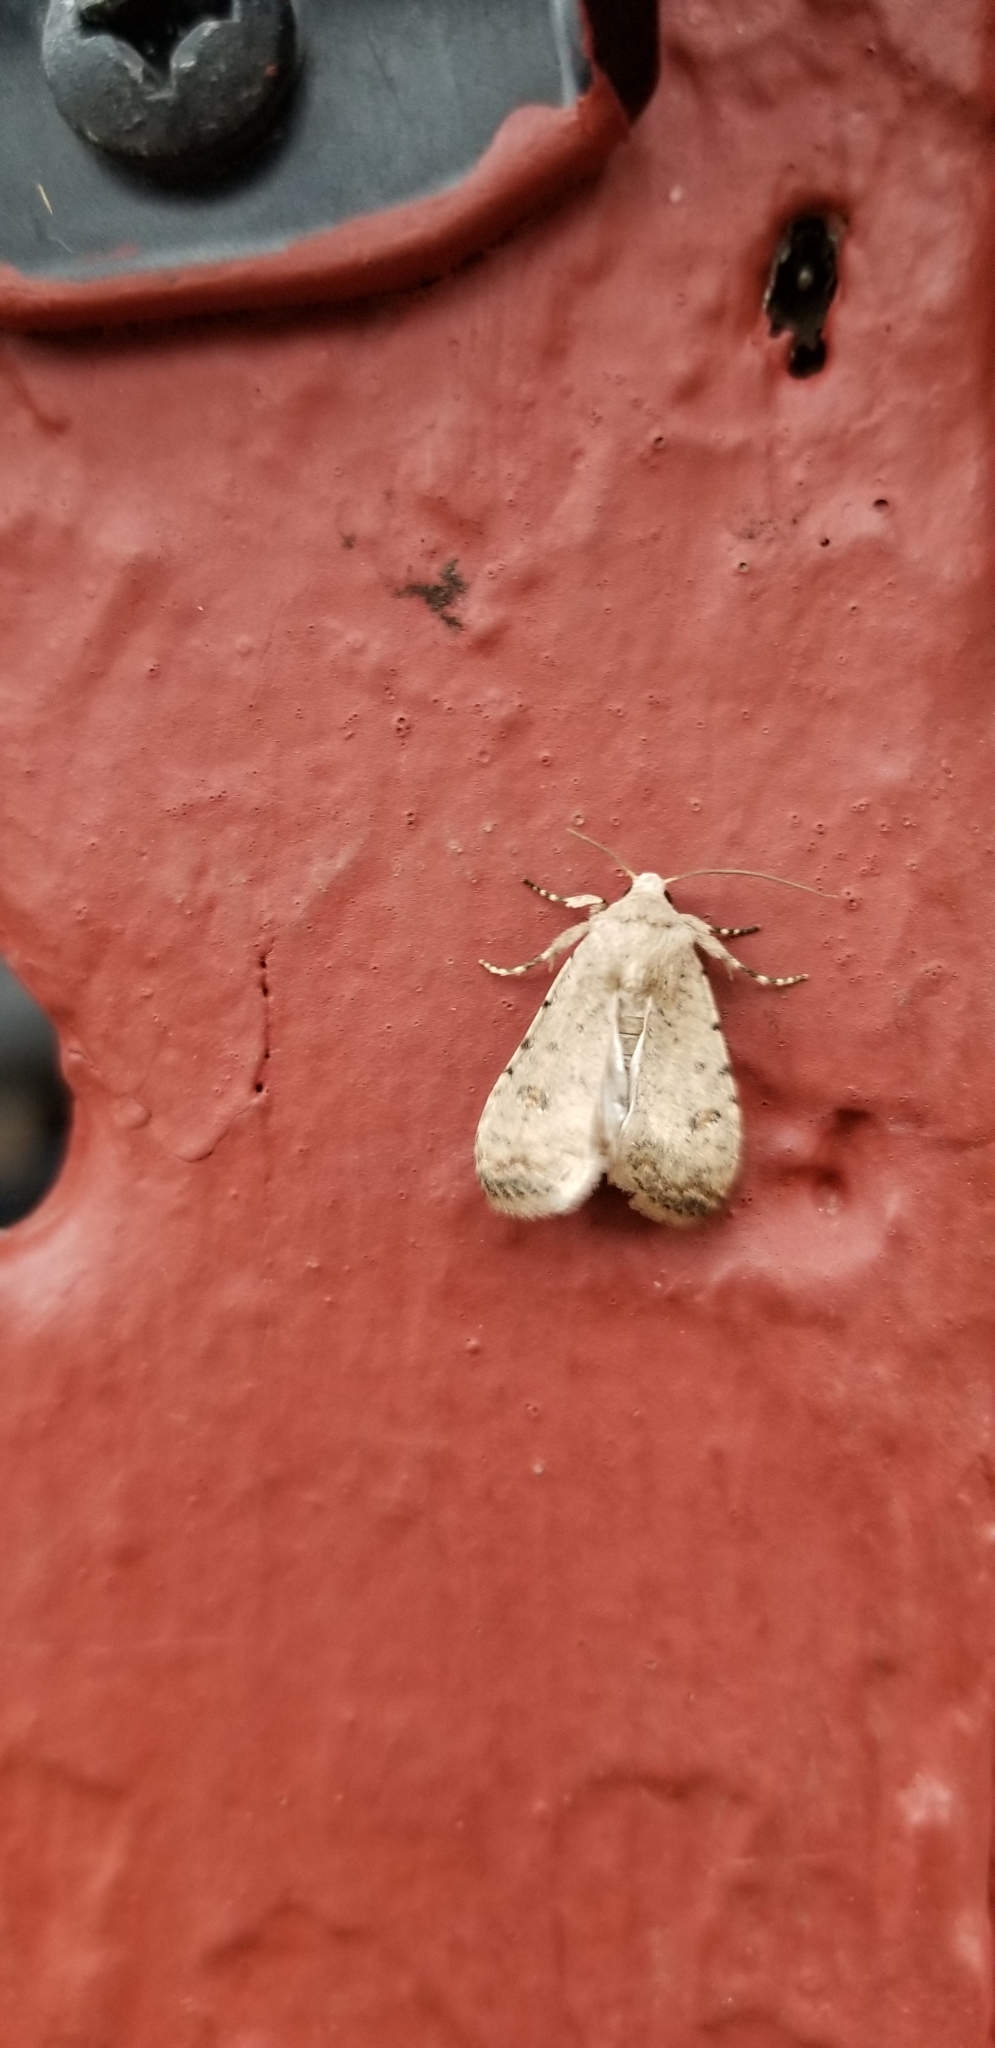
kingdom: Animalia
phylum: Arthropoda
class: Insecta
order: Lepidoptera
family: Noctuidae
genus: Caradrina
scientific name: Caradrina clavipalpis
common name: Pale mottled willow
